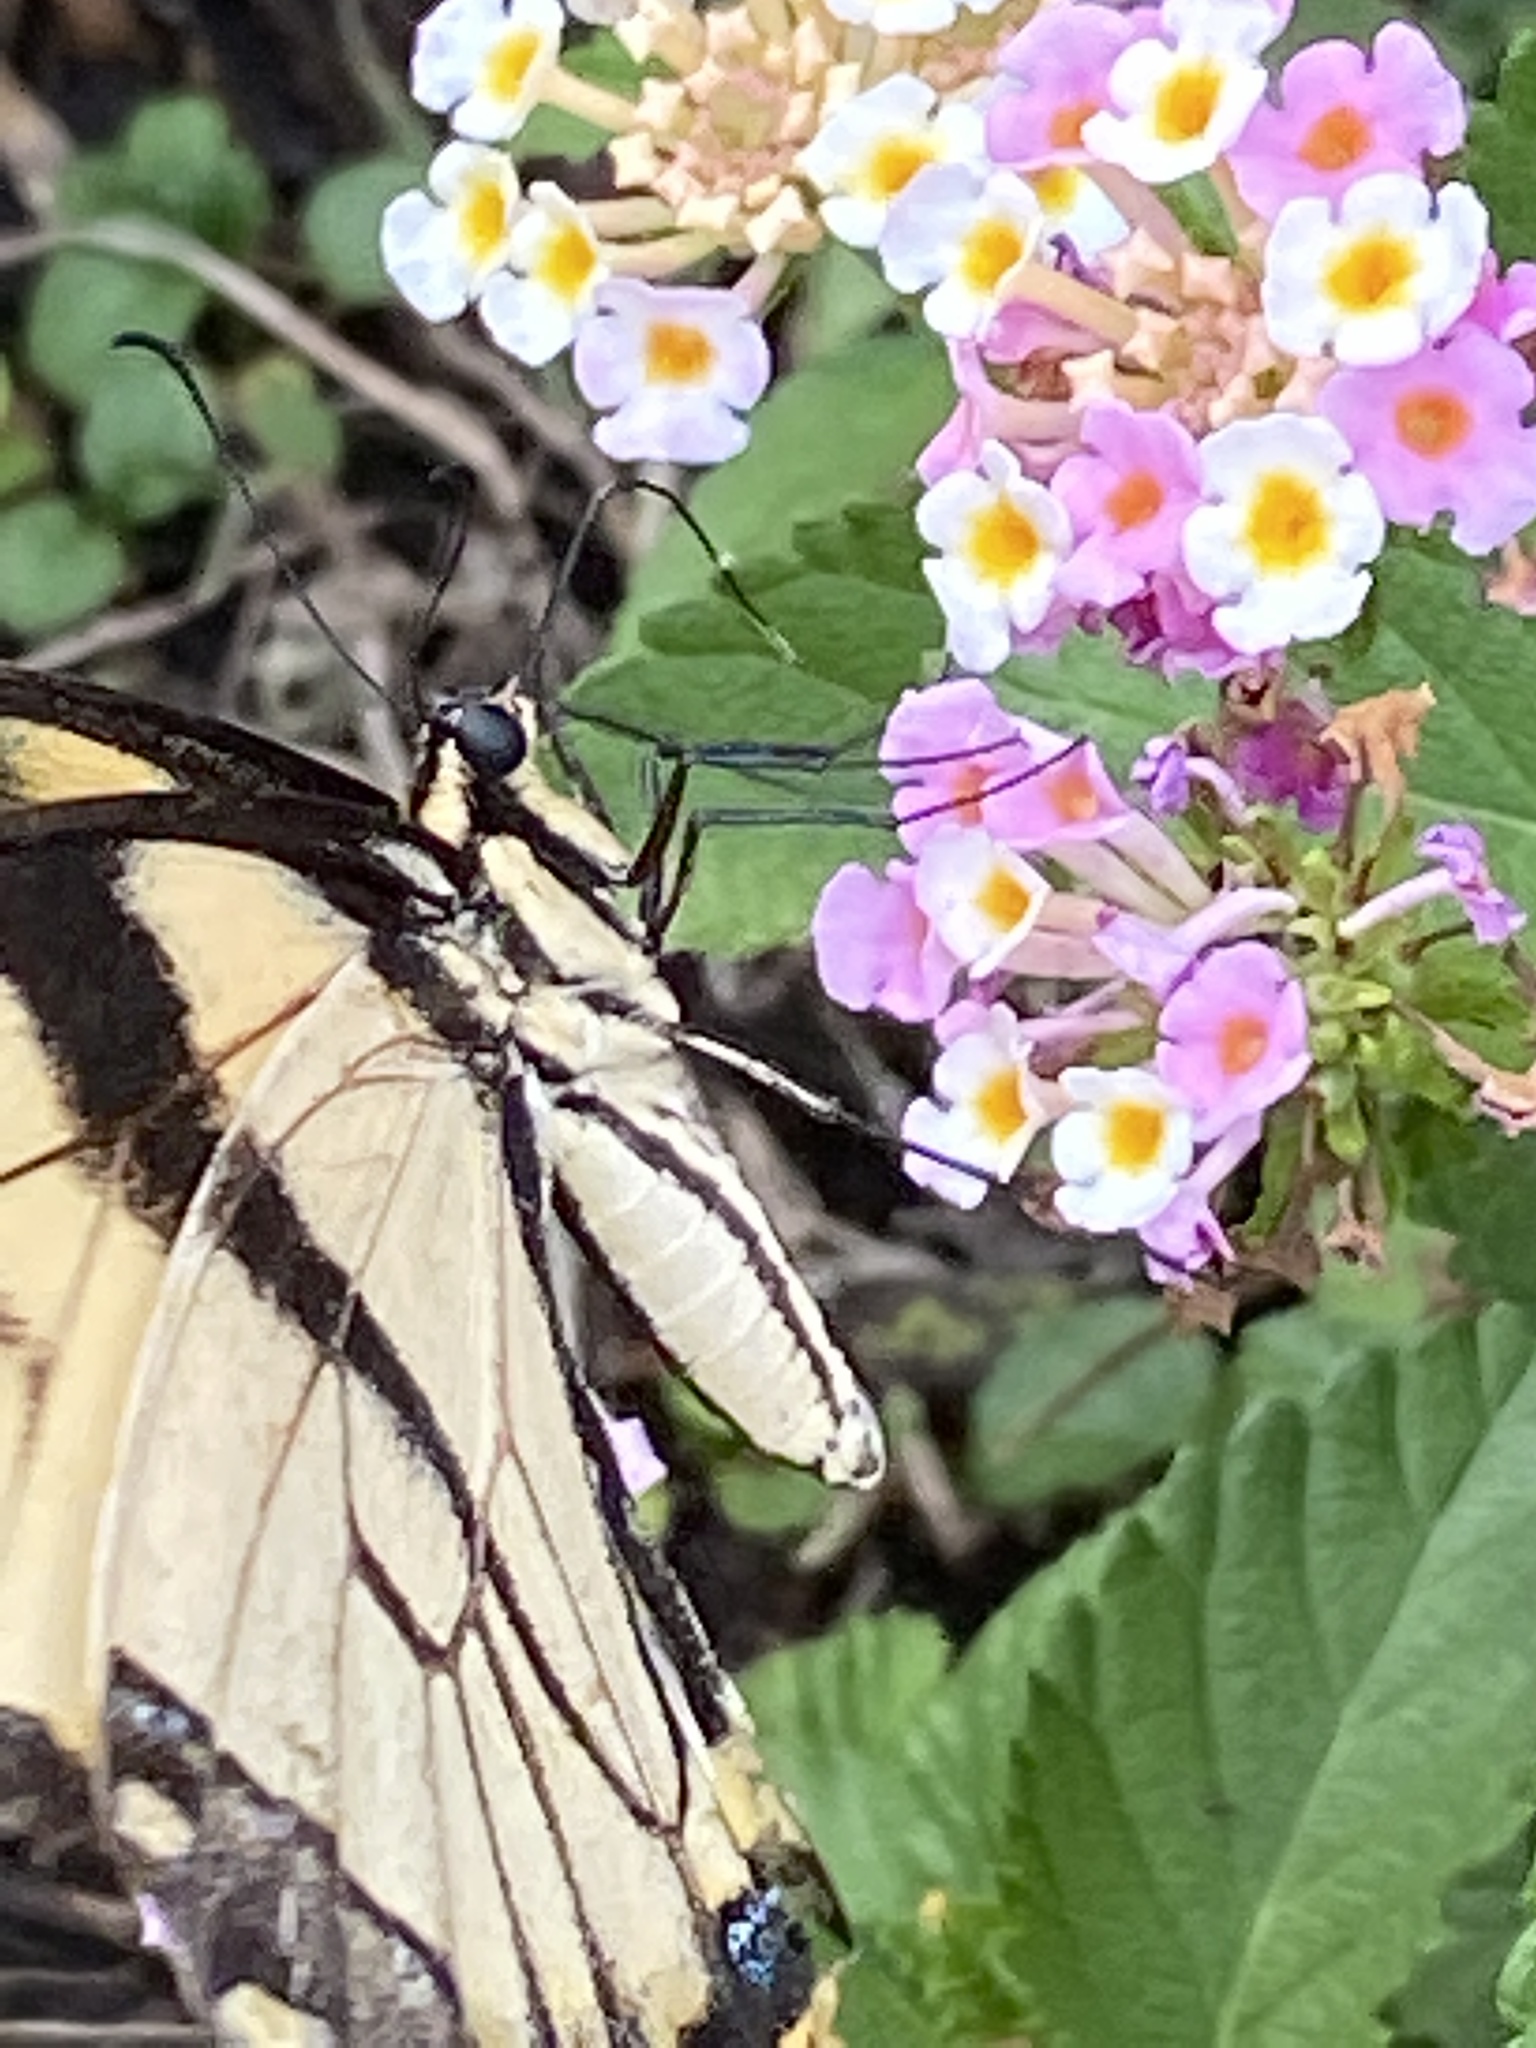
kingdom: Animalia
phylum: Arthropoda
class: Insecta
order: Lepidoptera
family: Papilionidae
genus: Papilio
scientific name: Papilio glaucus
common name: Tiger swallowtail
